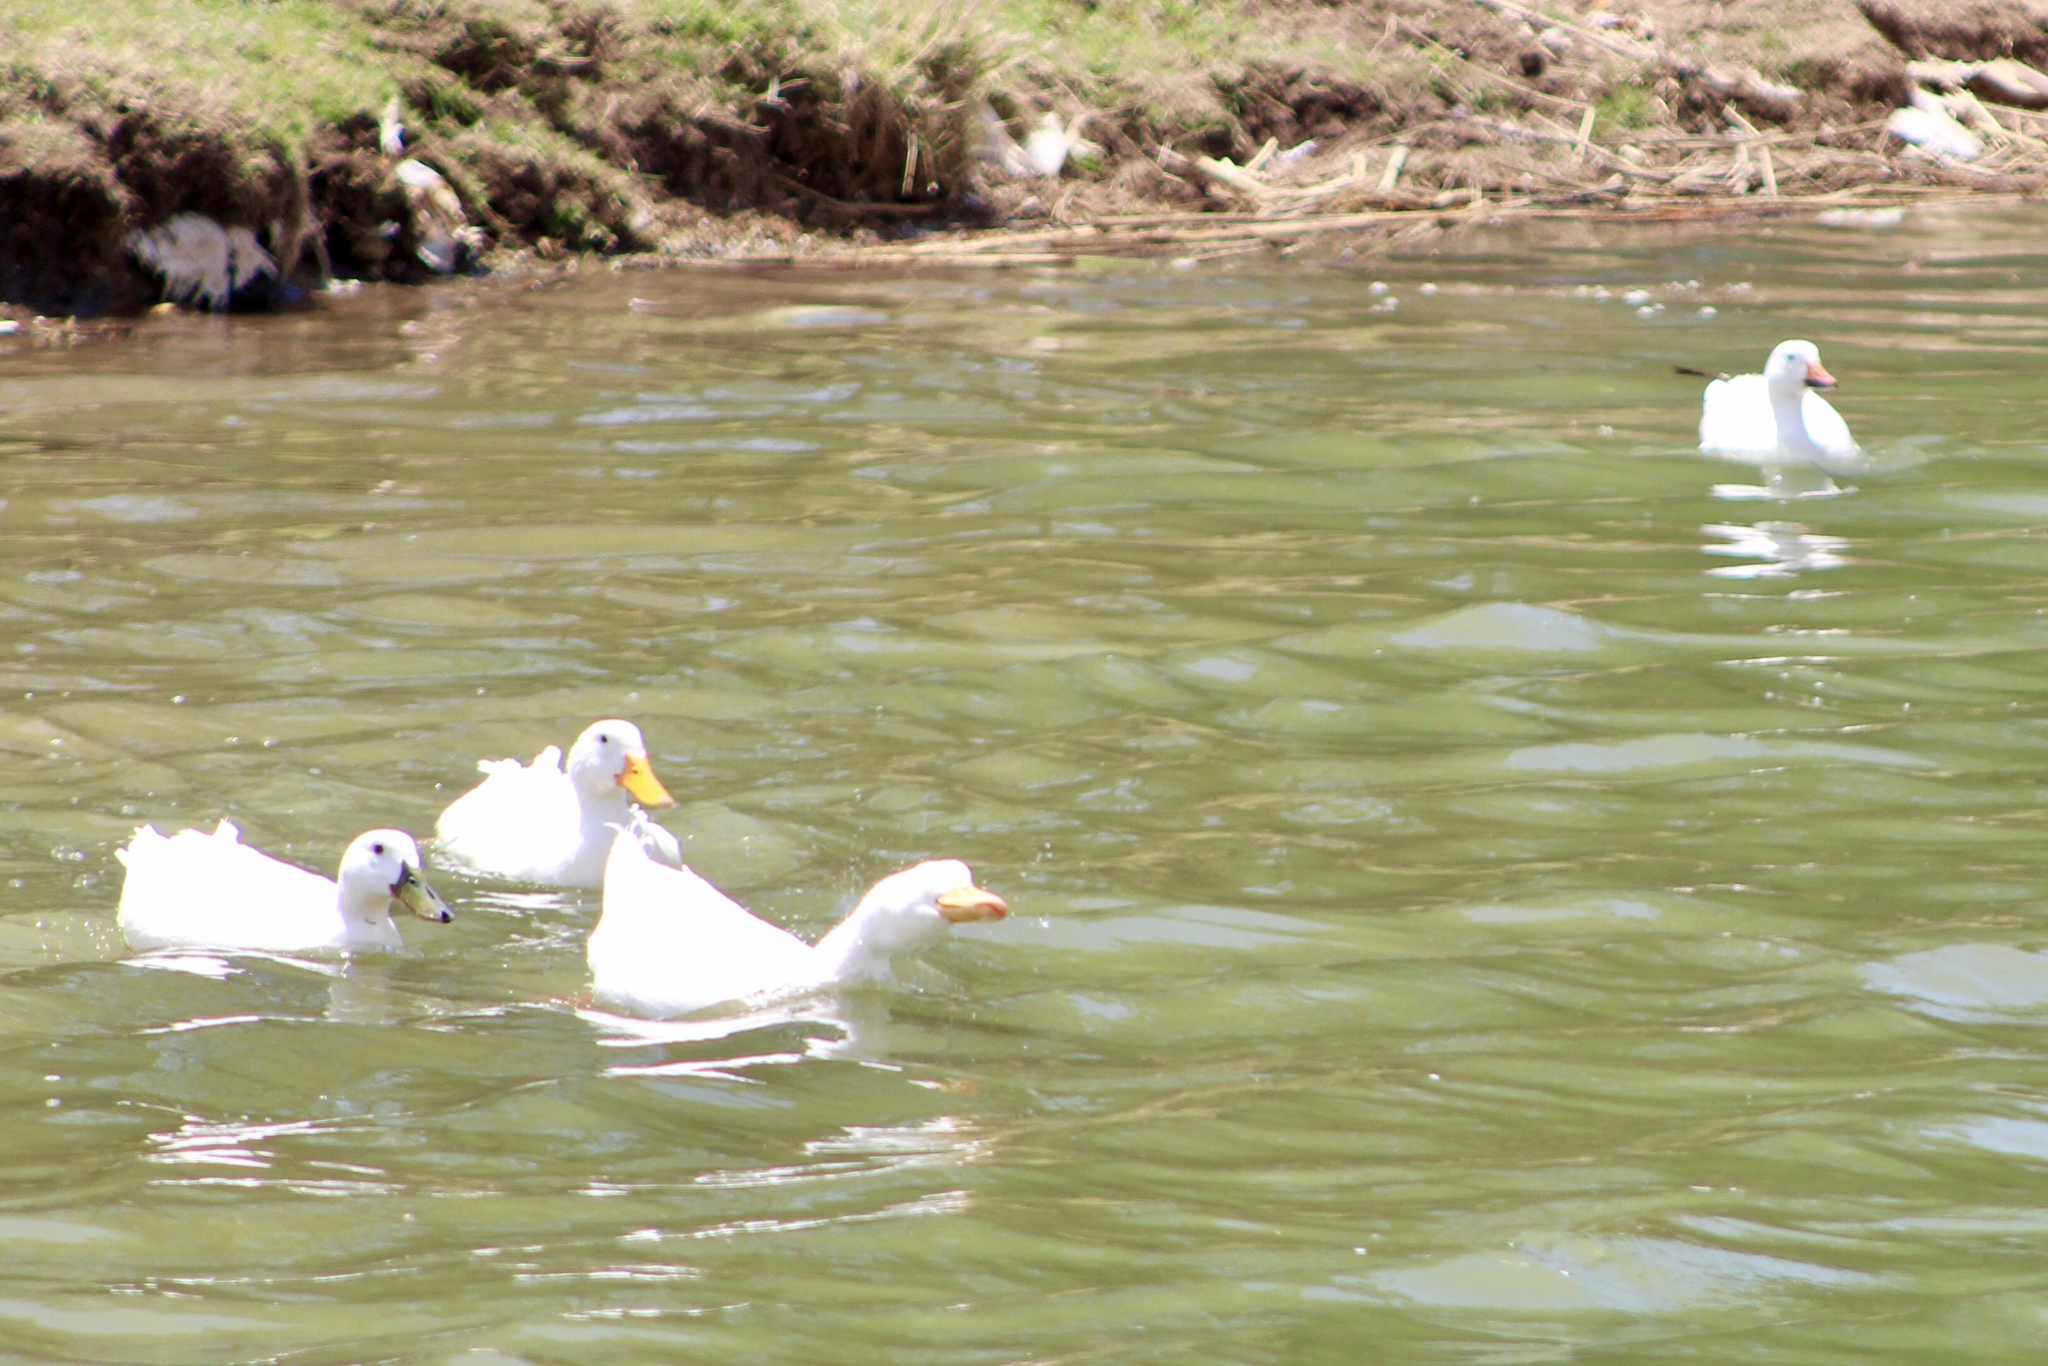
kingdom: Animalia
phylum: Chordata
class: Aves
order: Anseriformes
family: Anatidae
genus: Anas
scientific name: Anas platyrhynchos
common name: Mallard
